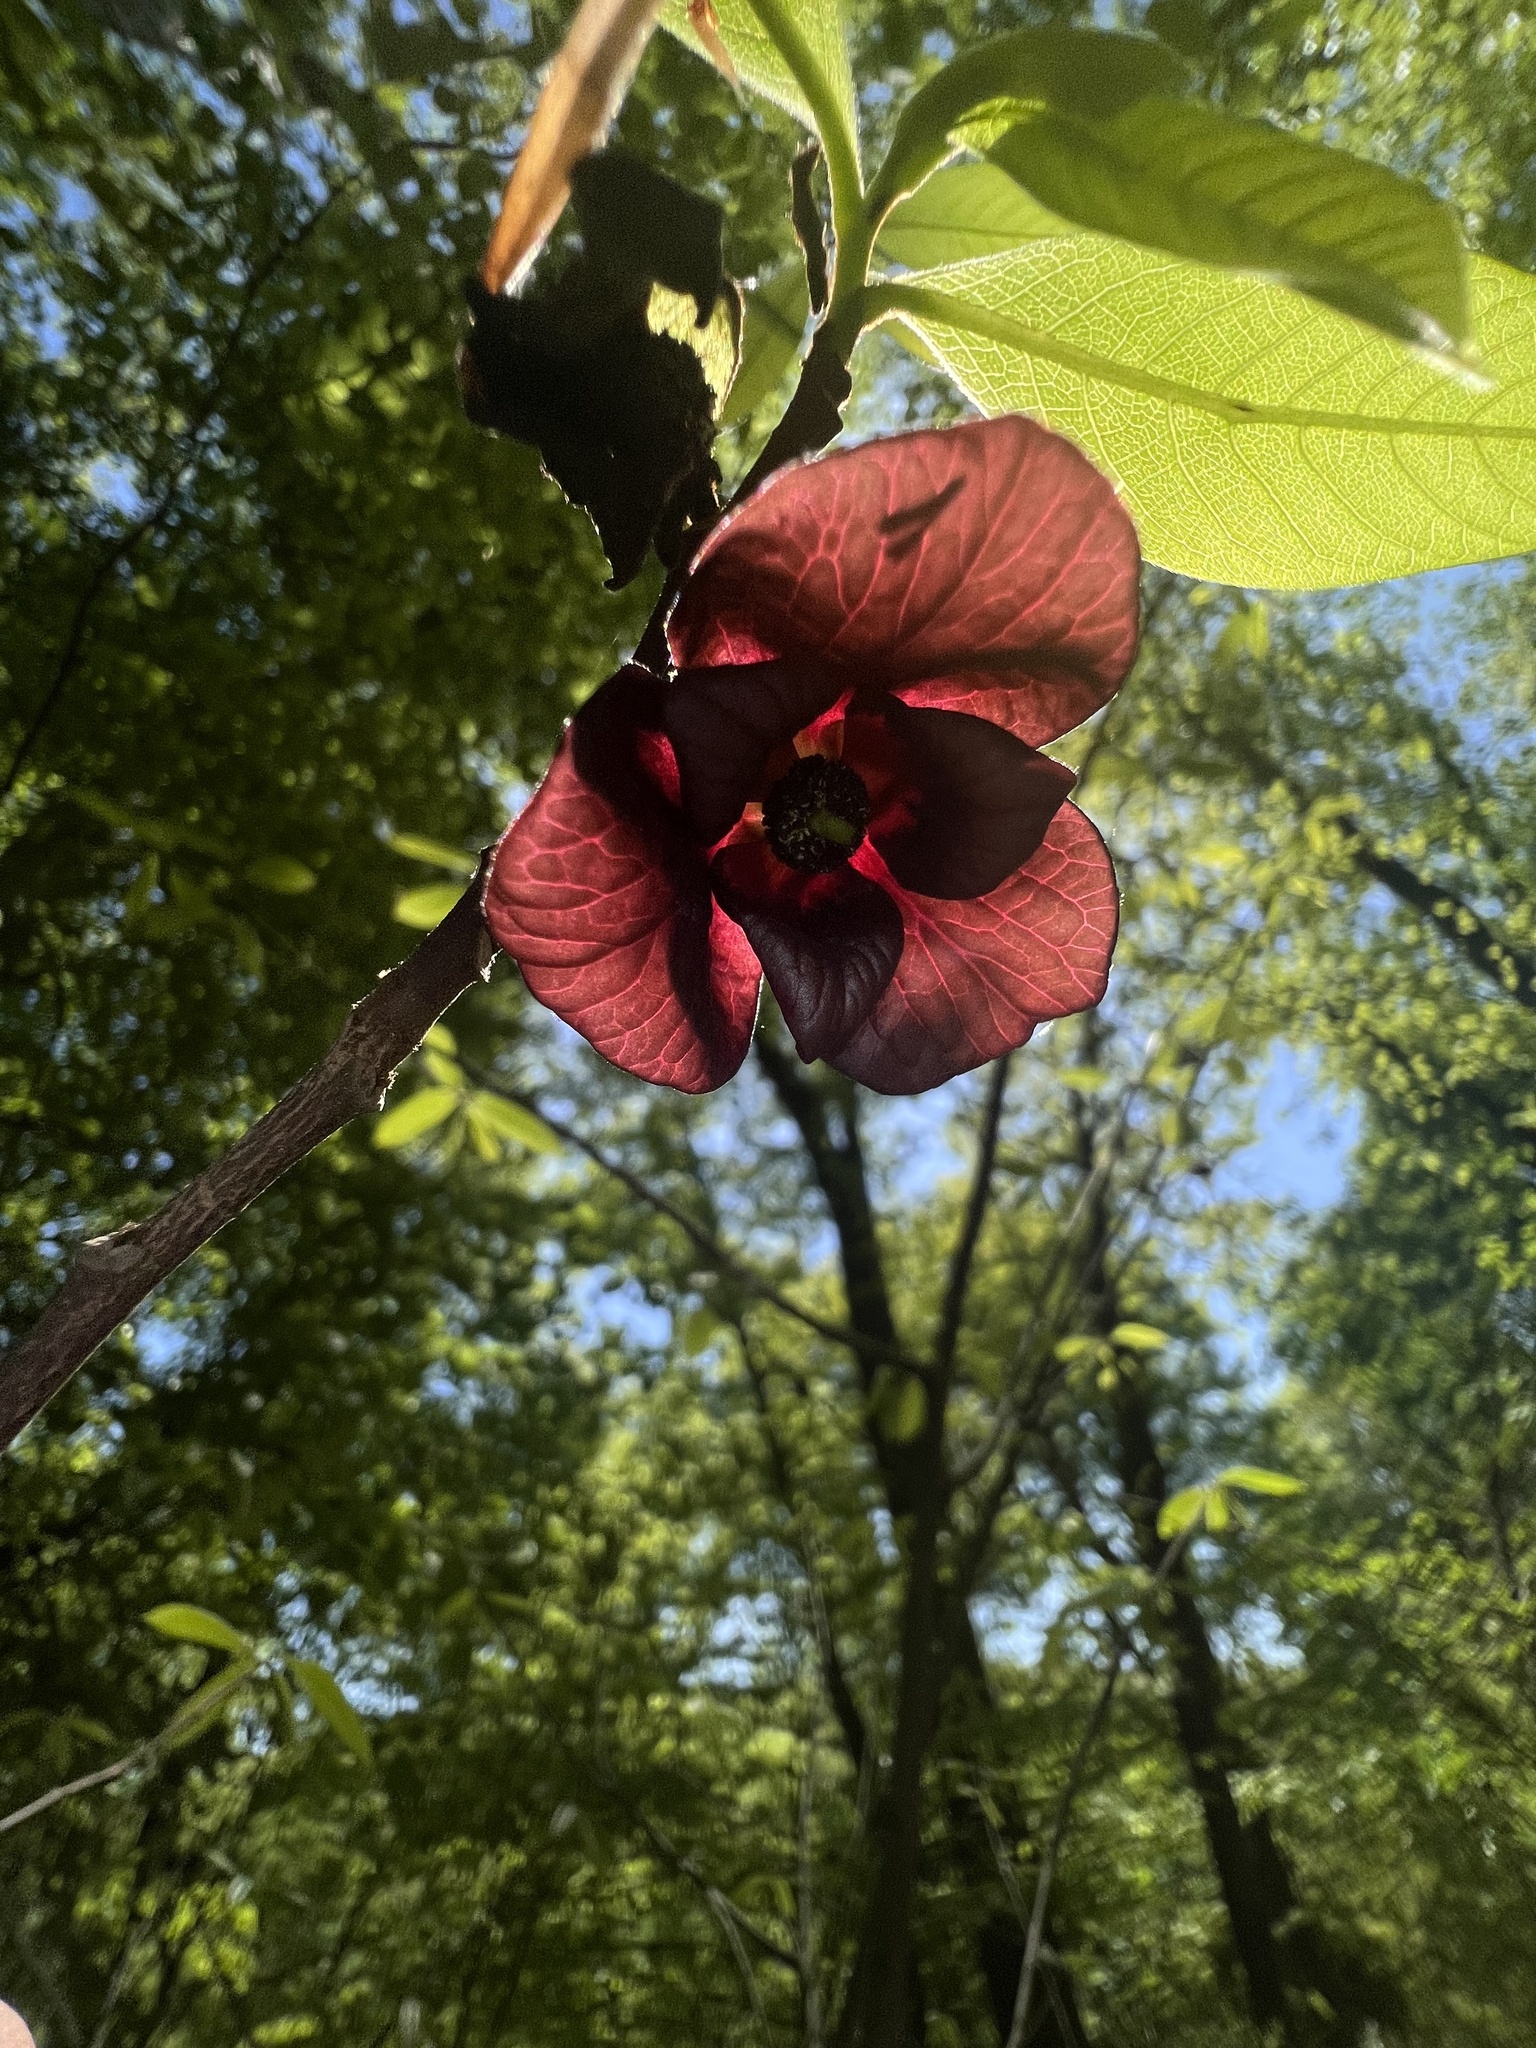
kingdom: Plantae
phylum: Tracheophyta
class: Magnoliopsida
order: Magnoliales
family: Annonaceae
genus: Asimina
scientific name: Asimina triloba
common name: Dog-banana
